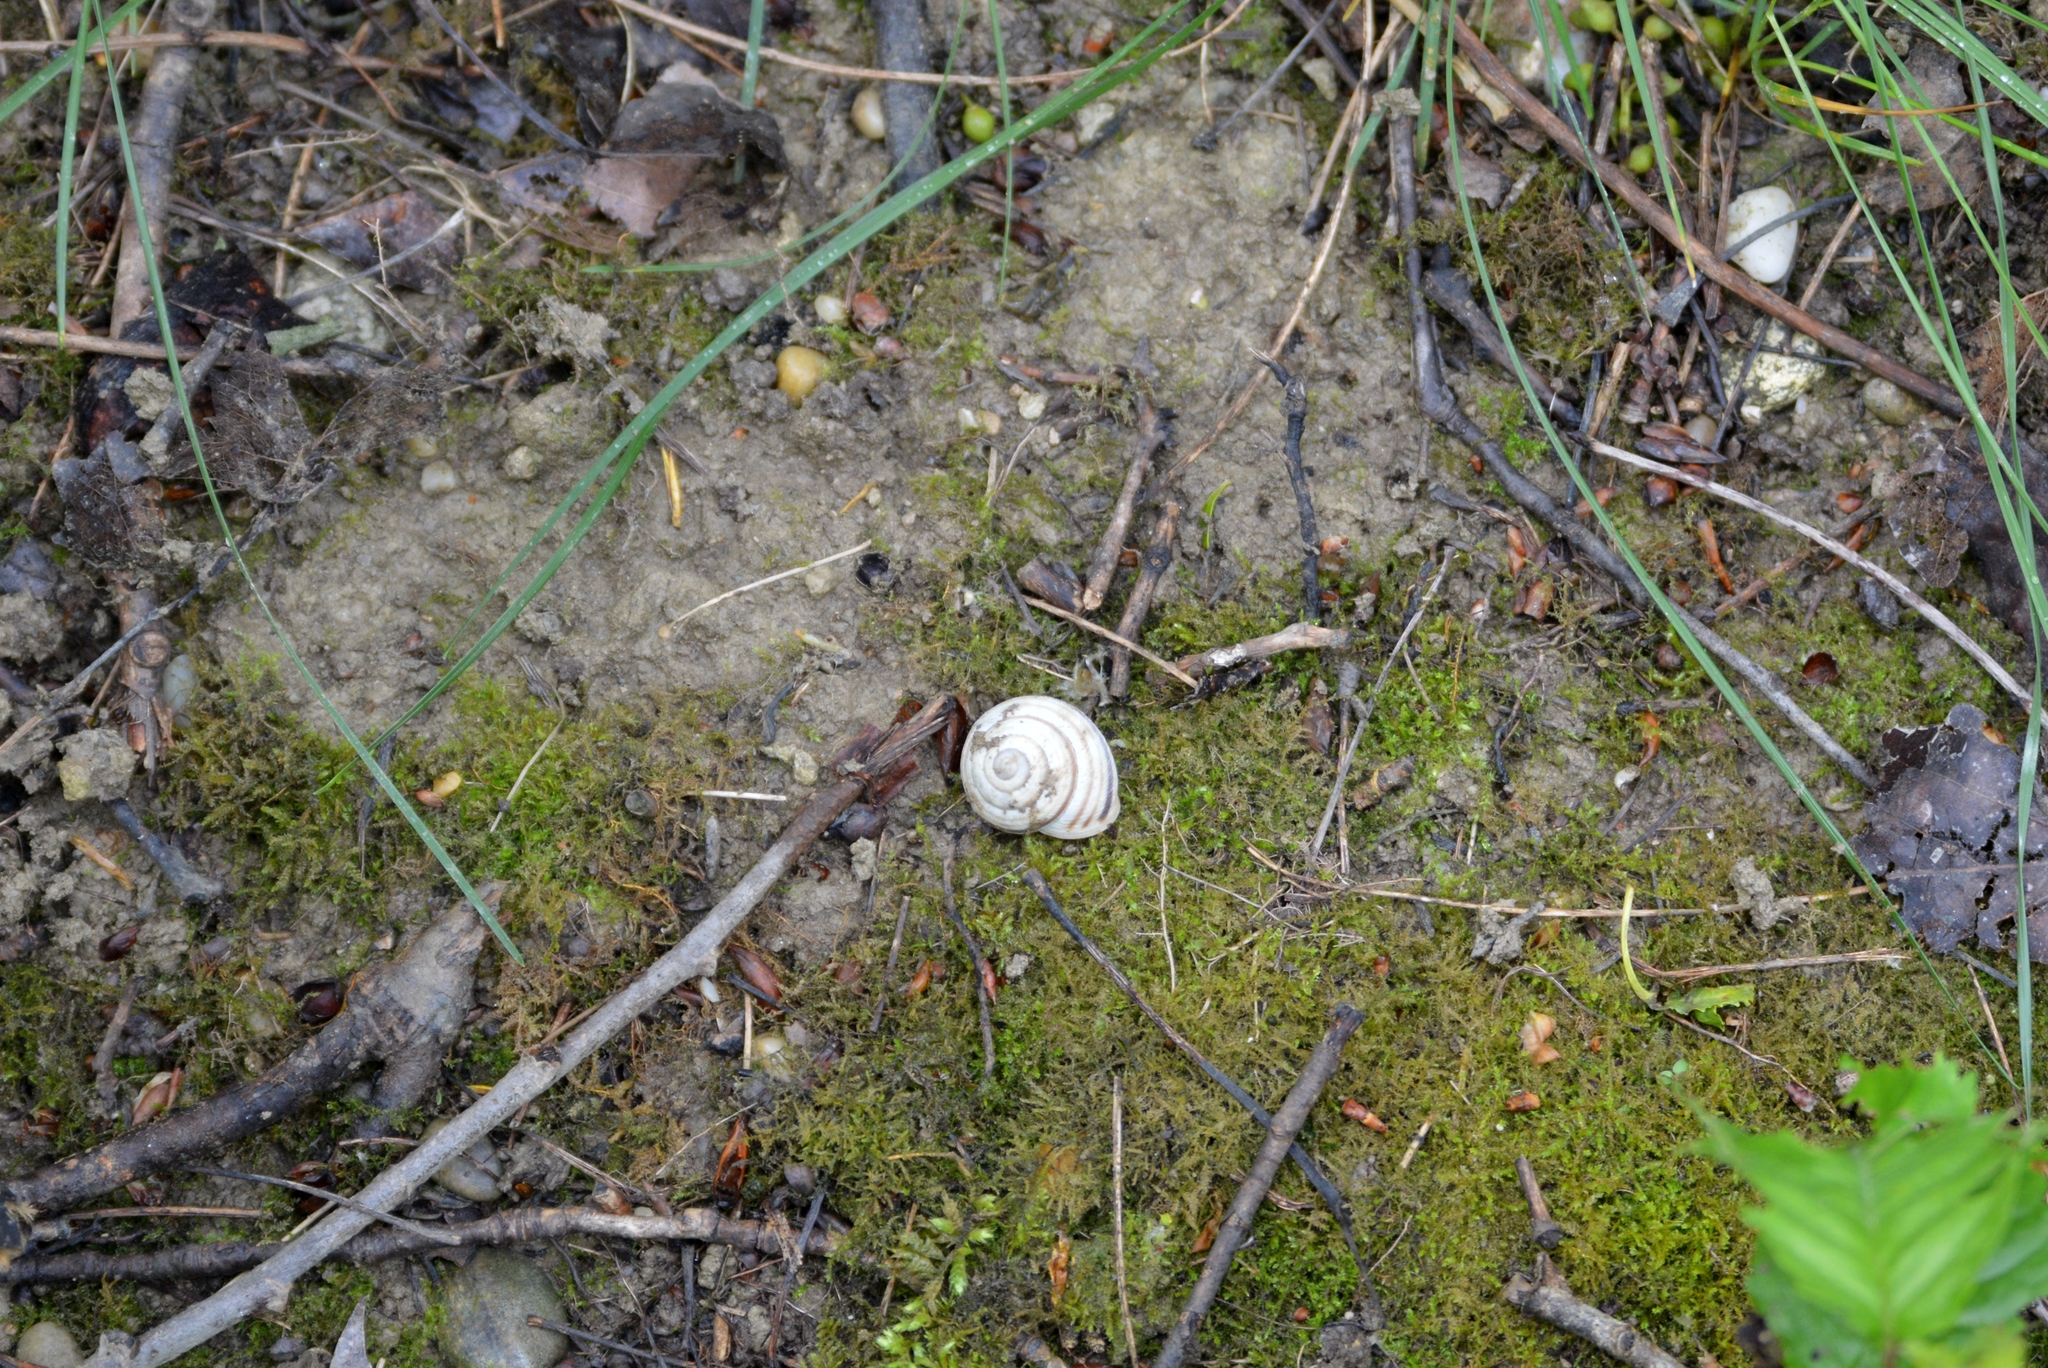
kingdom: Animalia
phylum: Mollusca
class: Gastropoda
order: Stylommatophora
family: Helicidae
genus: Caucasotachea
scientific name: Caucasotachea vindobonensis
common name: European helicid land snail
